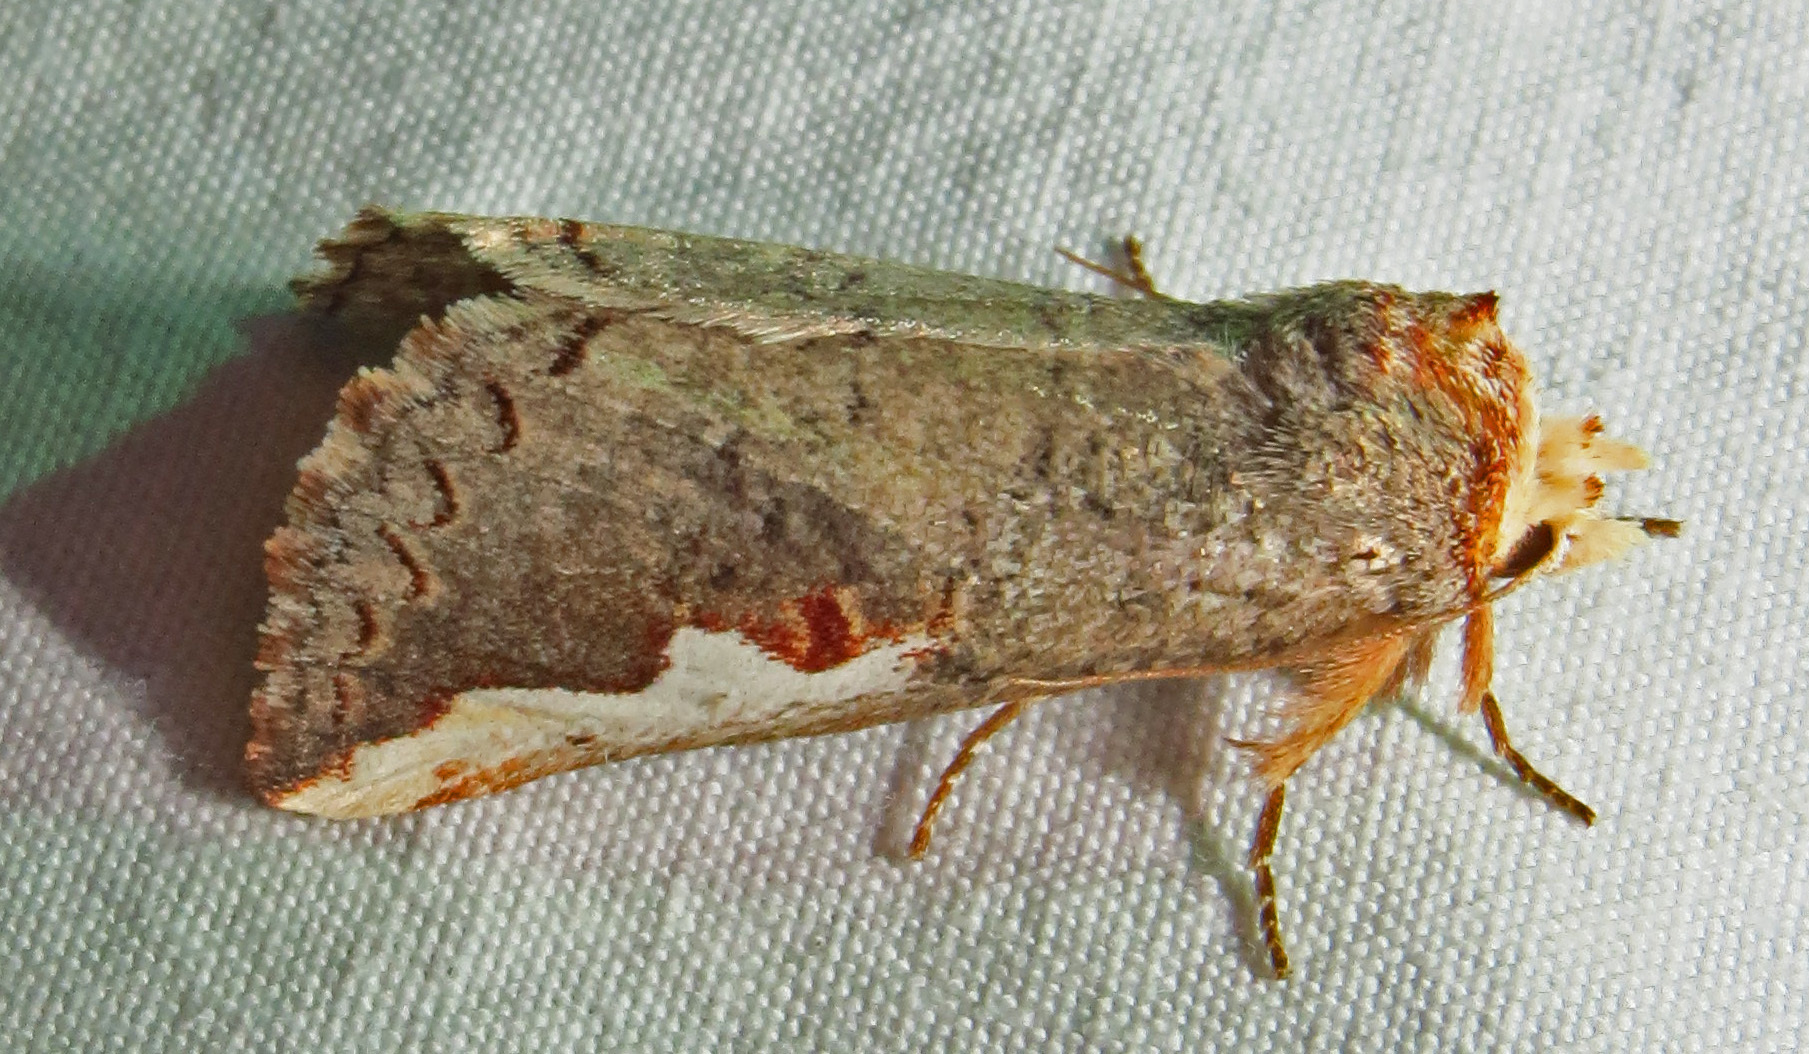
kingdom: Animalia
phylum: Arthropoda
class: Insecta
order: Lepidoptera
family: Notodontidae
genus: Symmerista
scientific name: Symmerista
